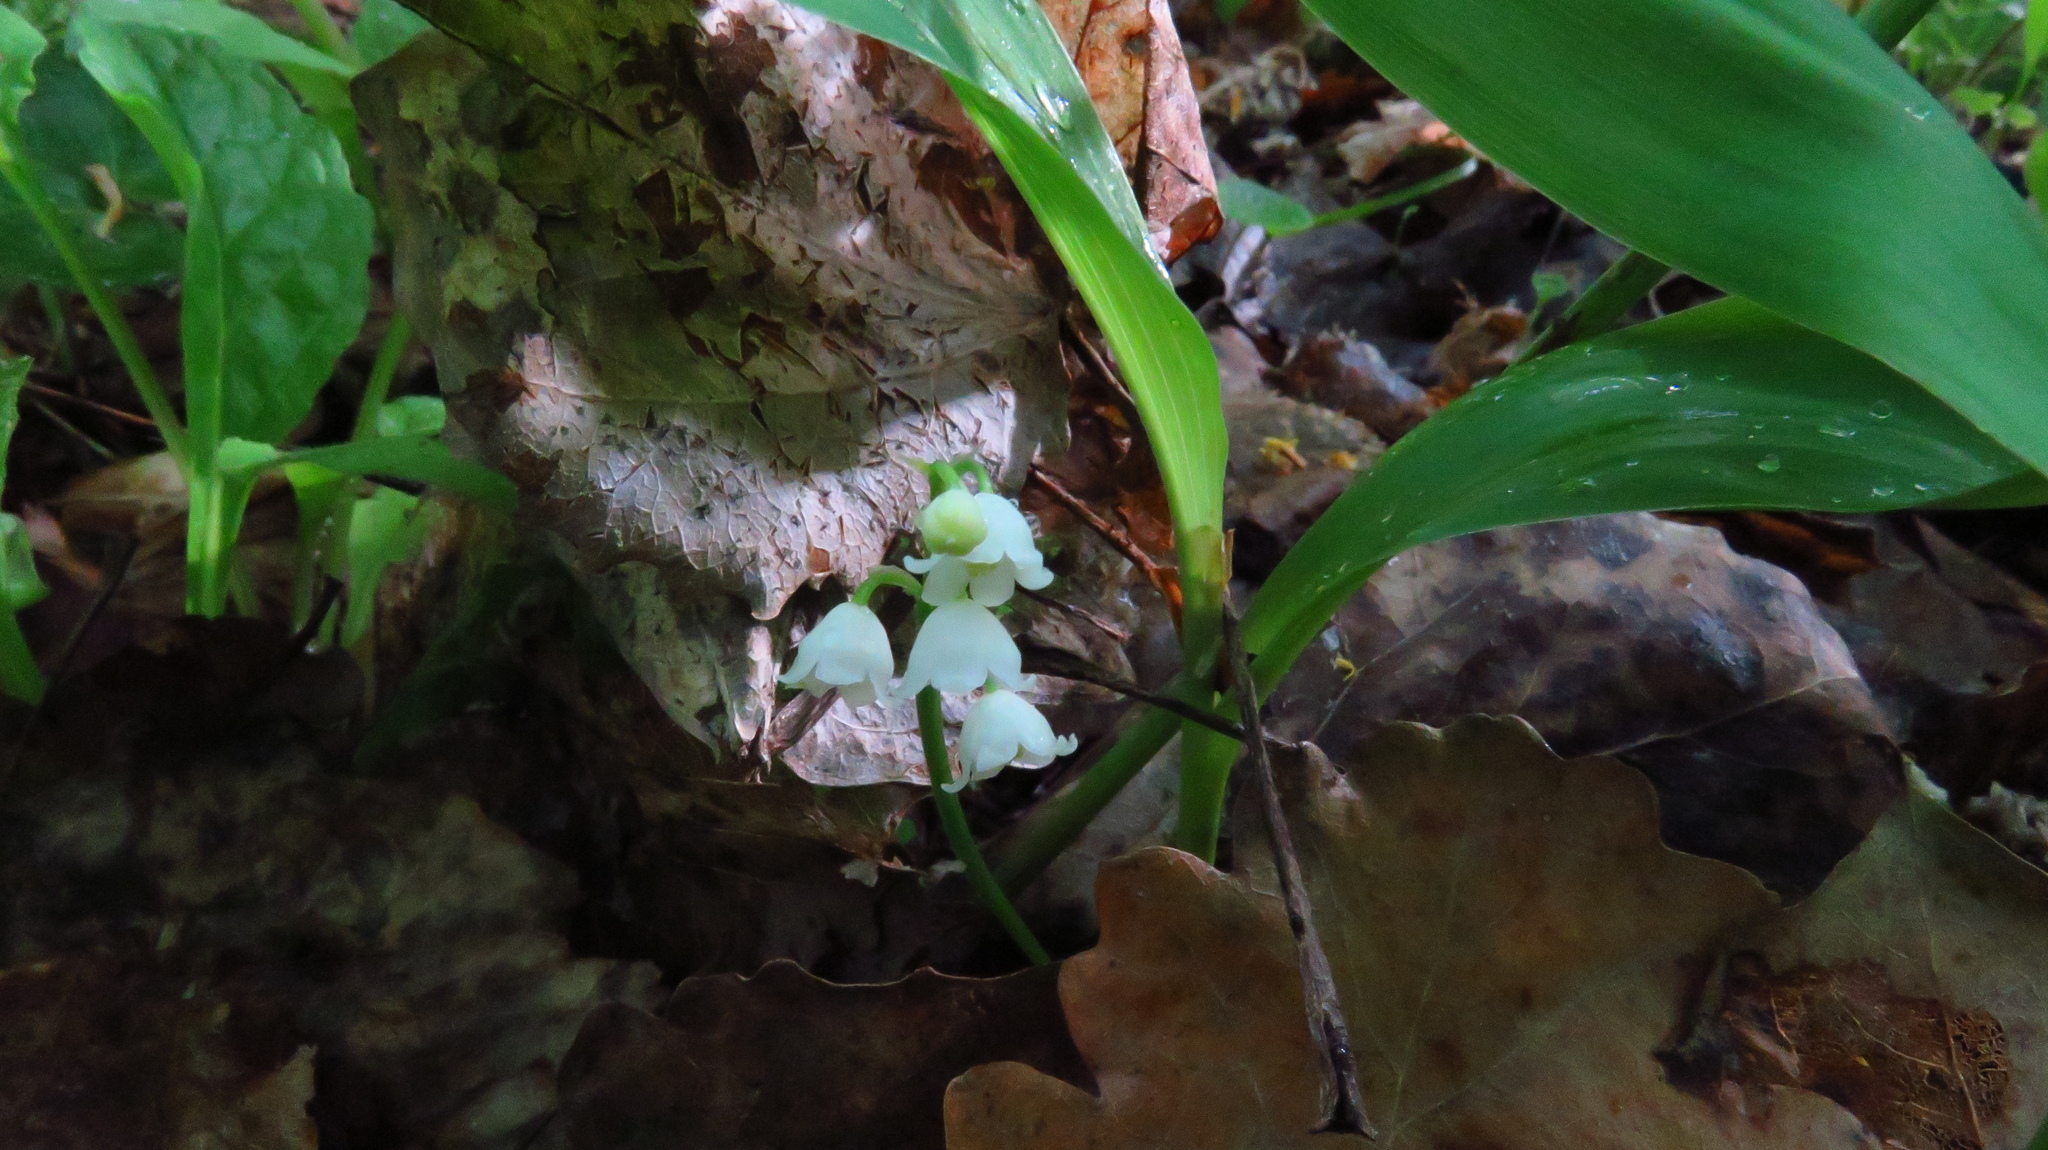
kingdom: Plantae
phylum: Tracheophyta
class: Liliopsida
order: Asparagales
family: Asparagaceae
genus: Convallaria
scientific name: Convallaria majalis
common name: Lily-of-the-valley
